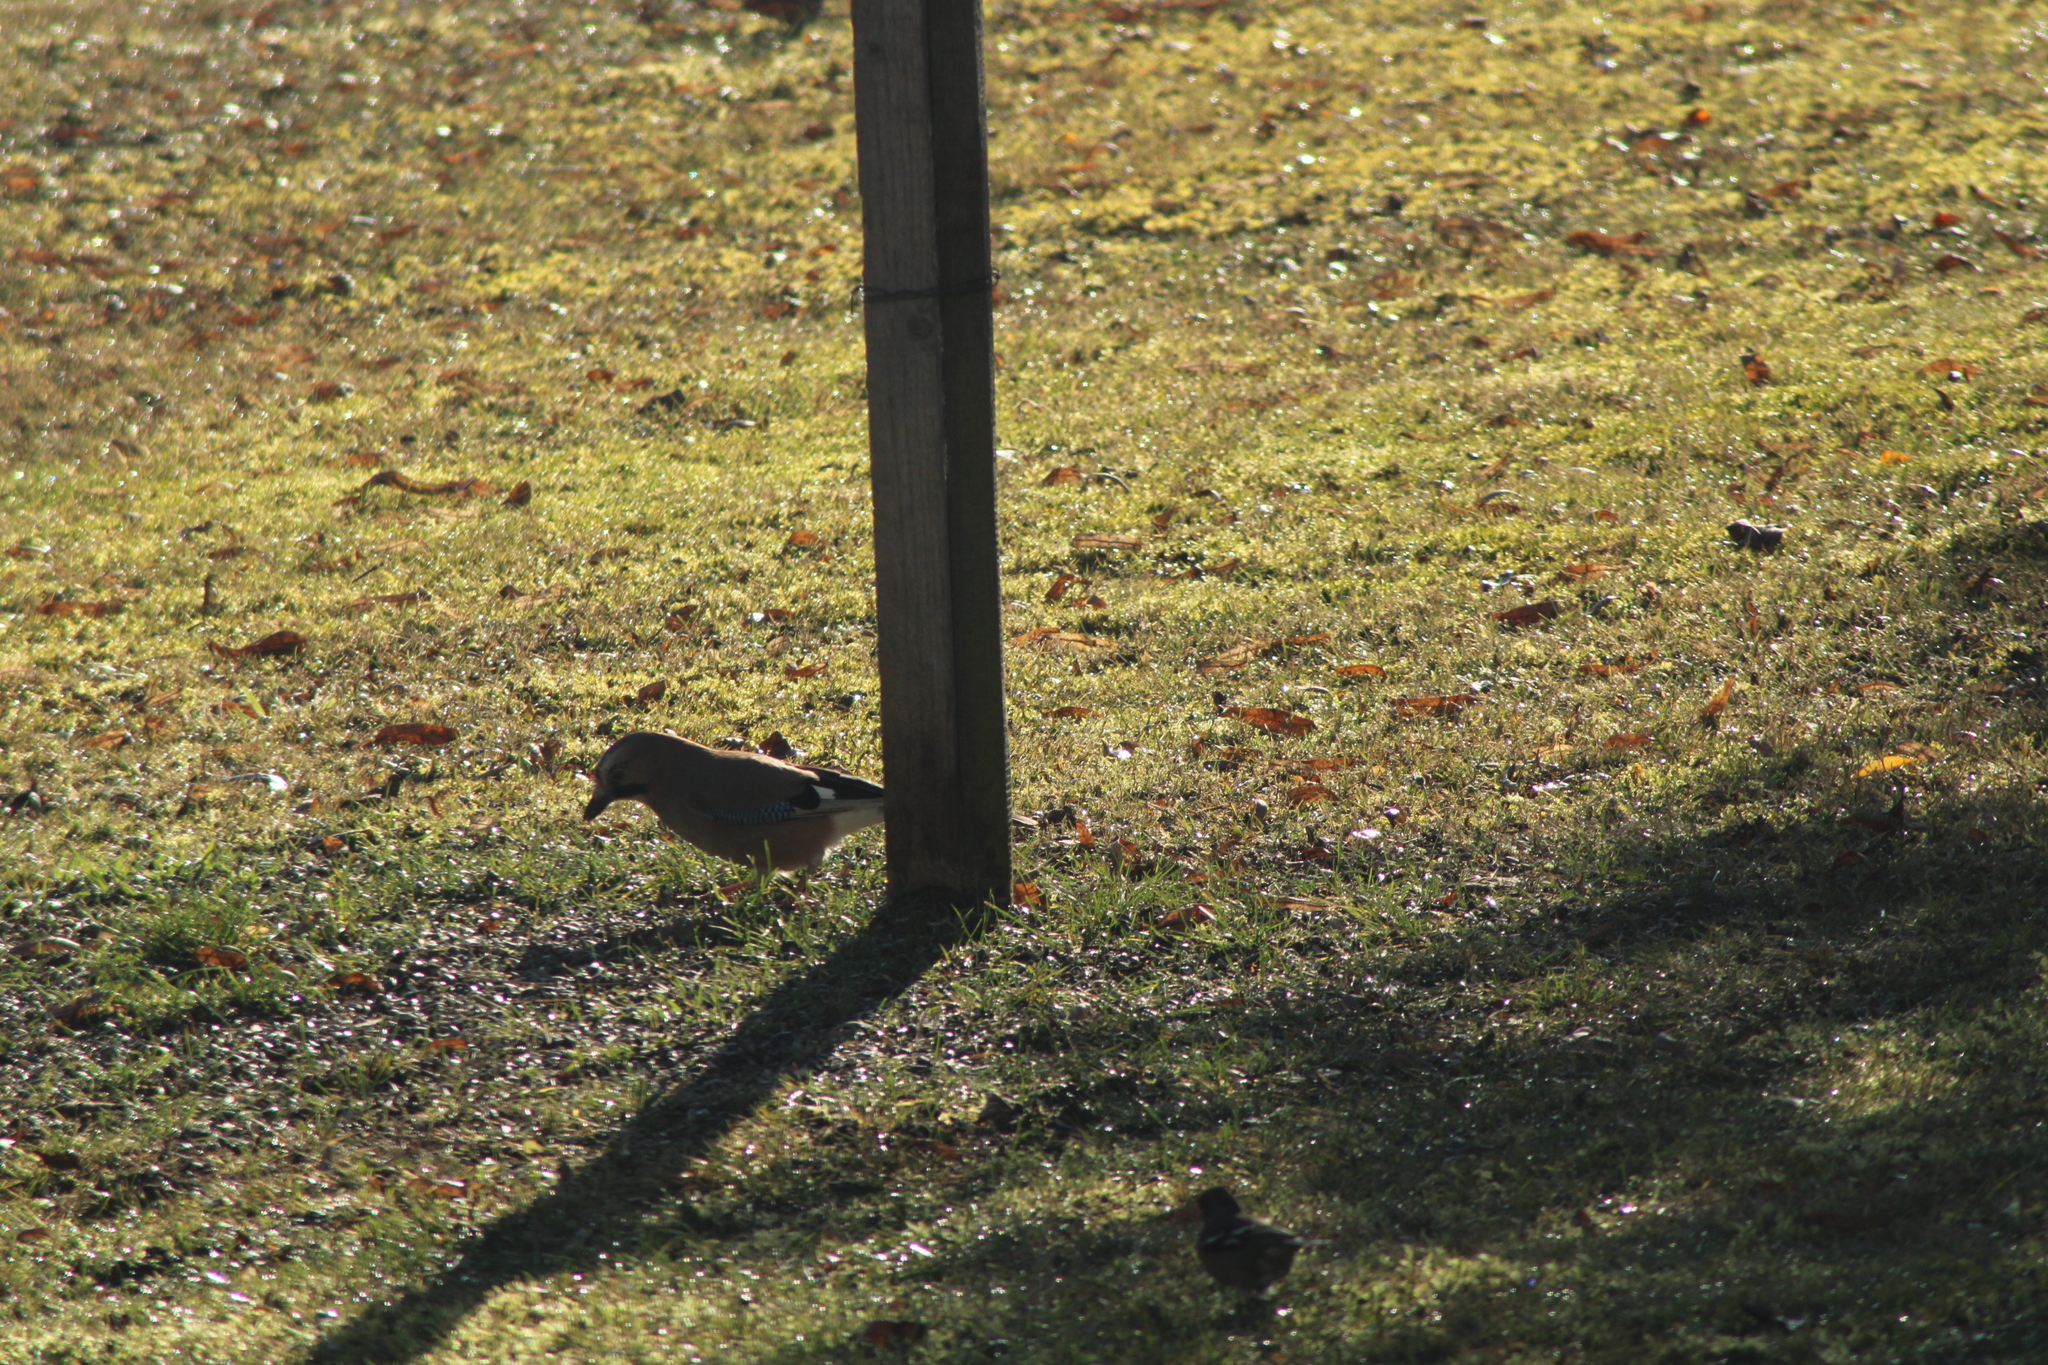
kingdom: Animalia
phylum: Chordata
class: Aves
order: Passeriformes
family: Corvidae
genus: Garrulus
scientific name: Garrulus glandarius
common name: Eurasian jay
